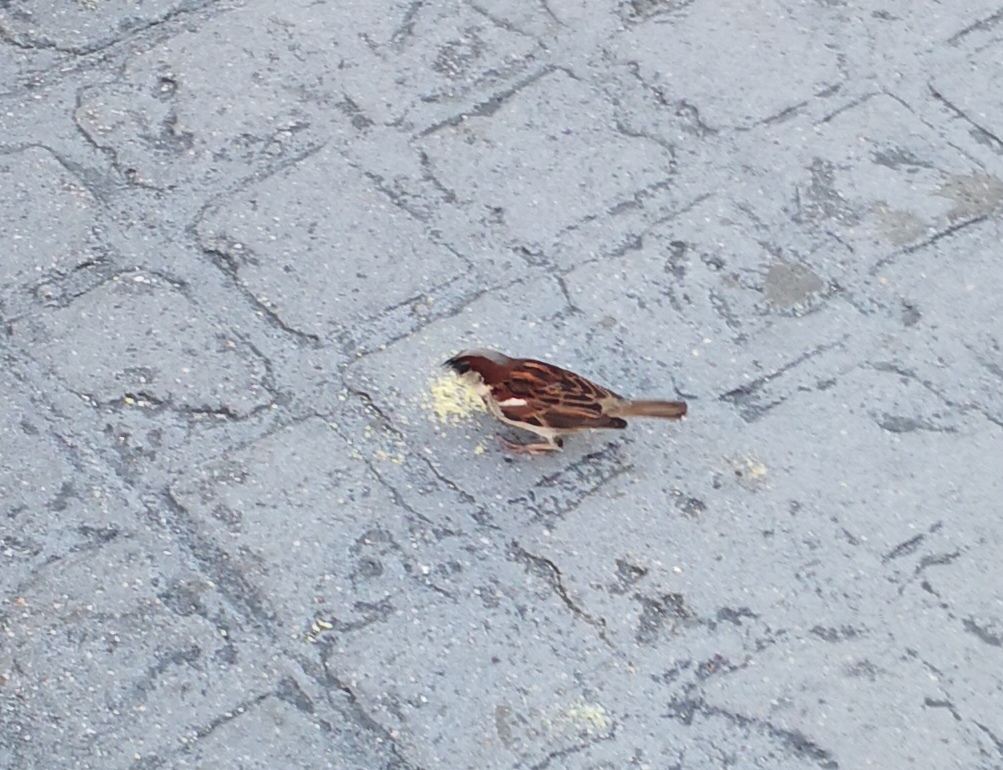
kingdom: Animalia
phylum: Chordata
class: Aves
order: Passeriformes
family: Passeridae
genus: Passer
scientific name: Passer domesticus
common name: House sparrow
